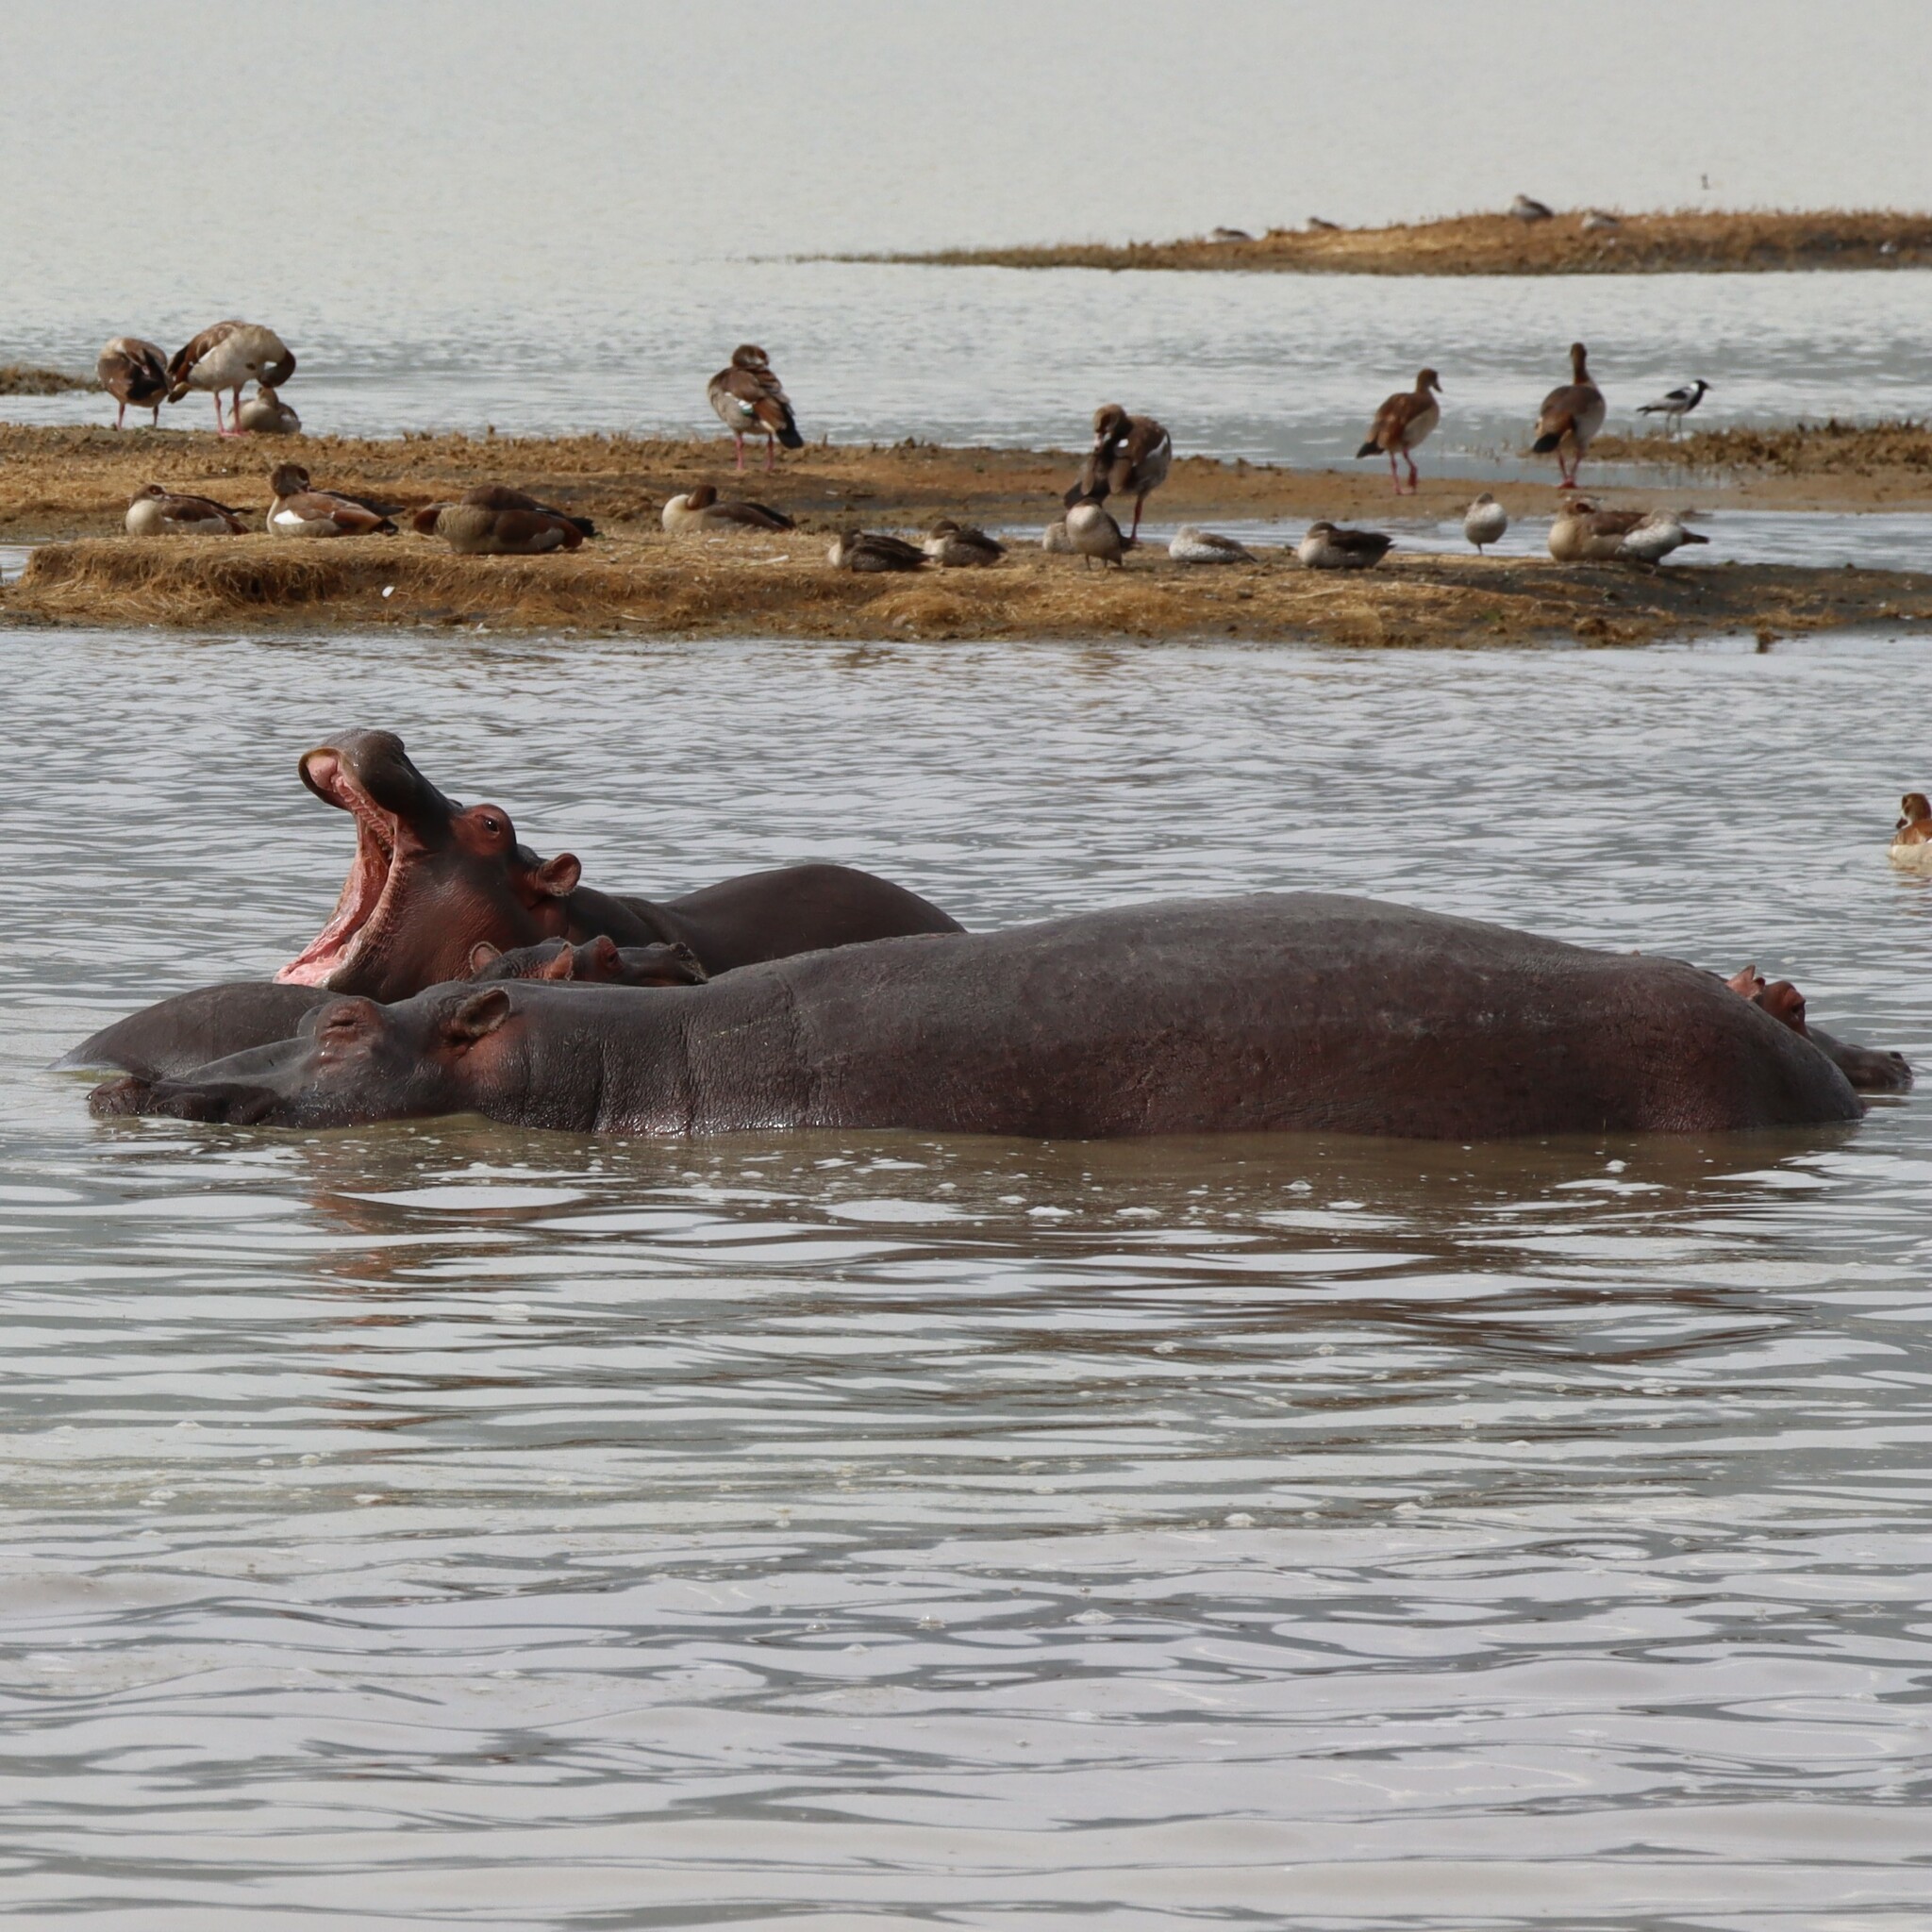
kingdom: Animalia
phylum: Chordata
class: Mammalia
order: Artiodactyla
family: Hippopotamidae
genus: Hippopotamus
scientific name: Hippopotamus amphibius
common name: Common hippopotamus
